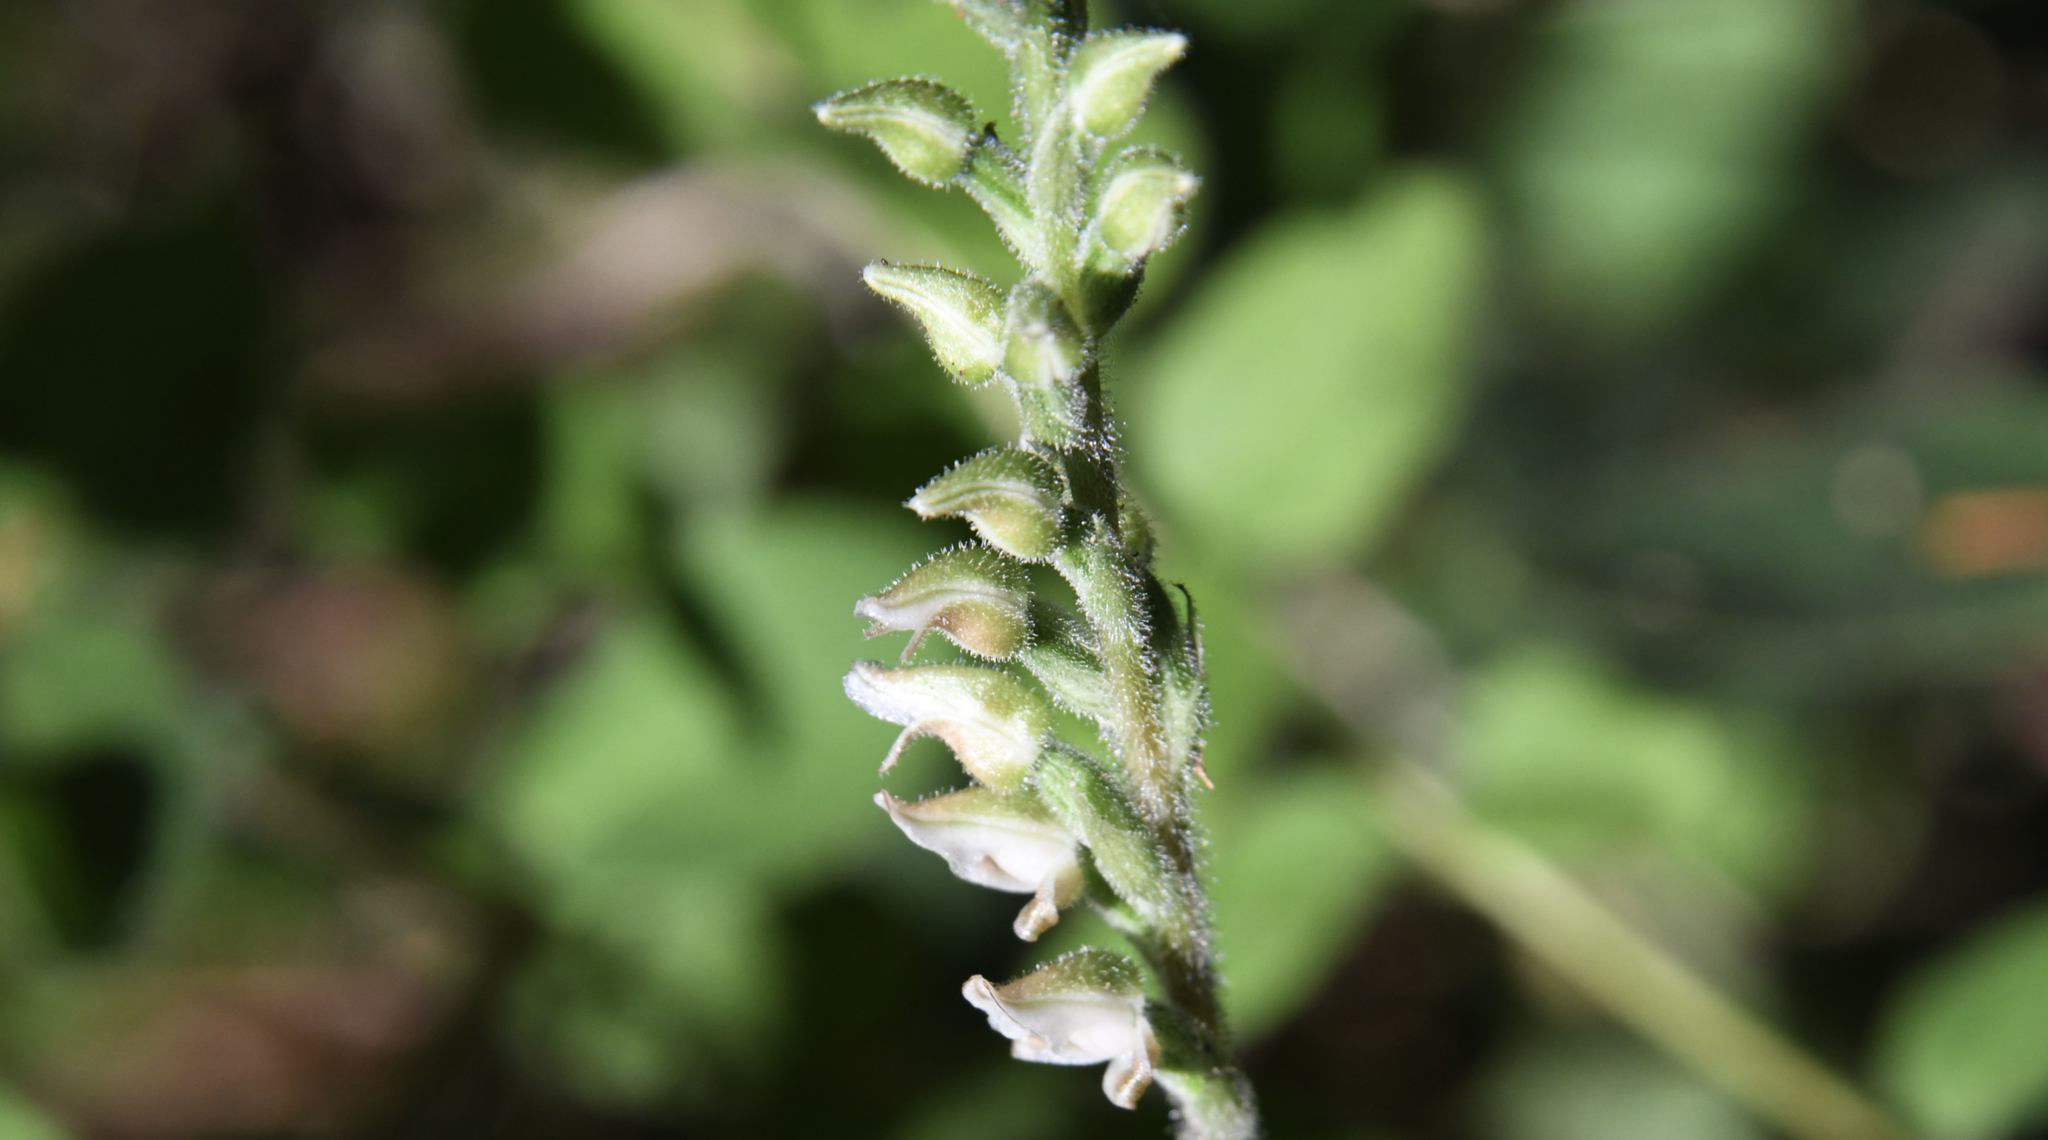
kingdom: Plantae
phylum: Tracheophyta
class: Liliopsida
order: Asparagales
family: Orchidaceae
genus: Goodyera
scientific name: Goodyera oblongifolia
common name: Giant rattlesnake-plantain
